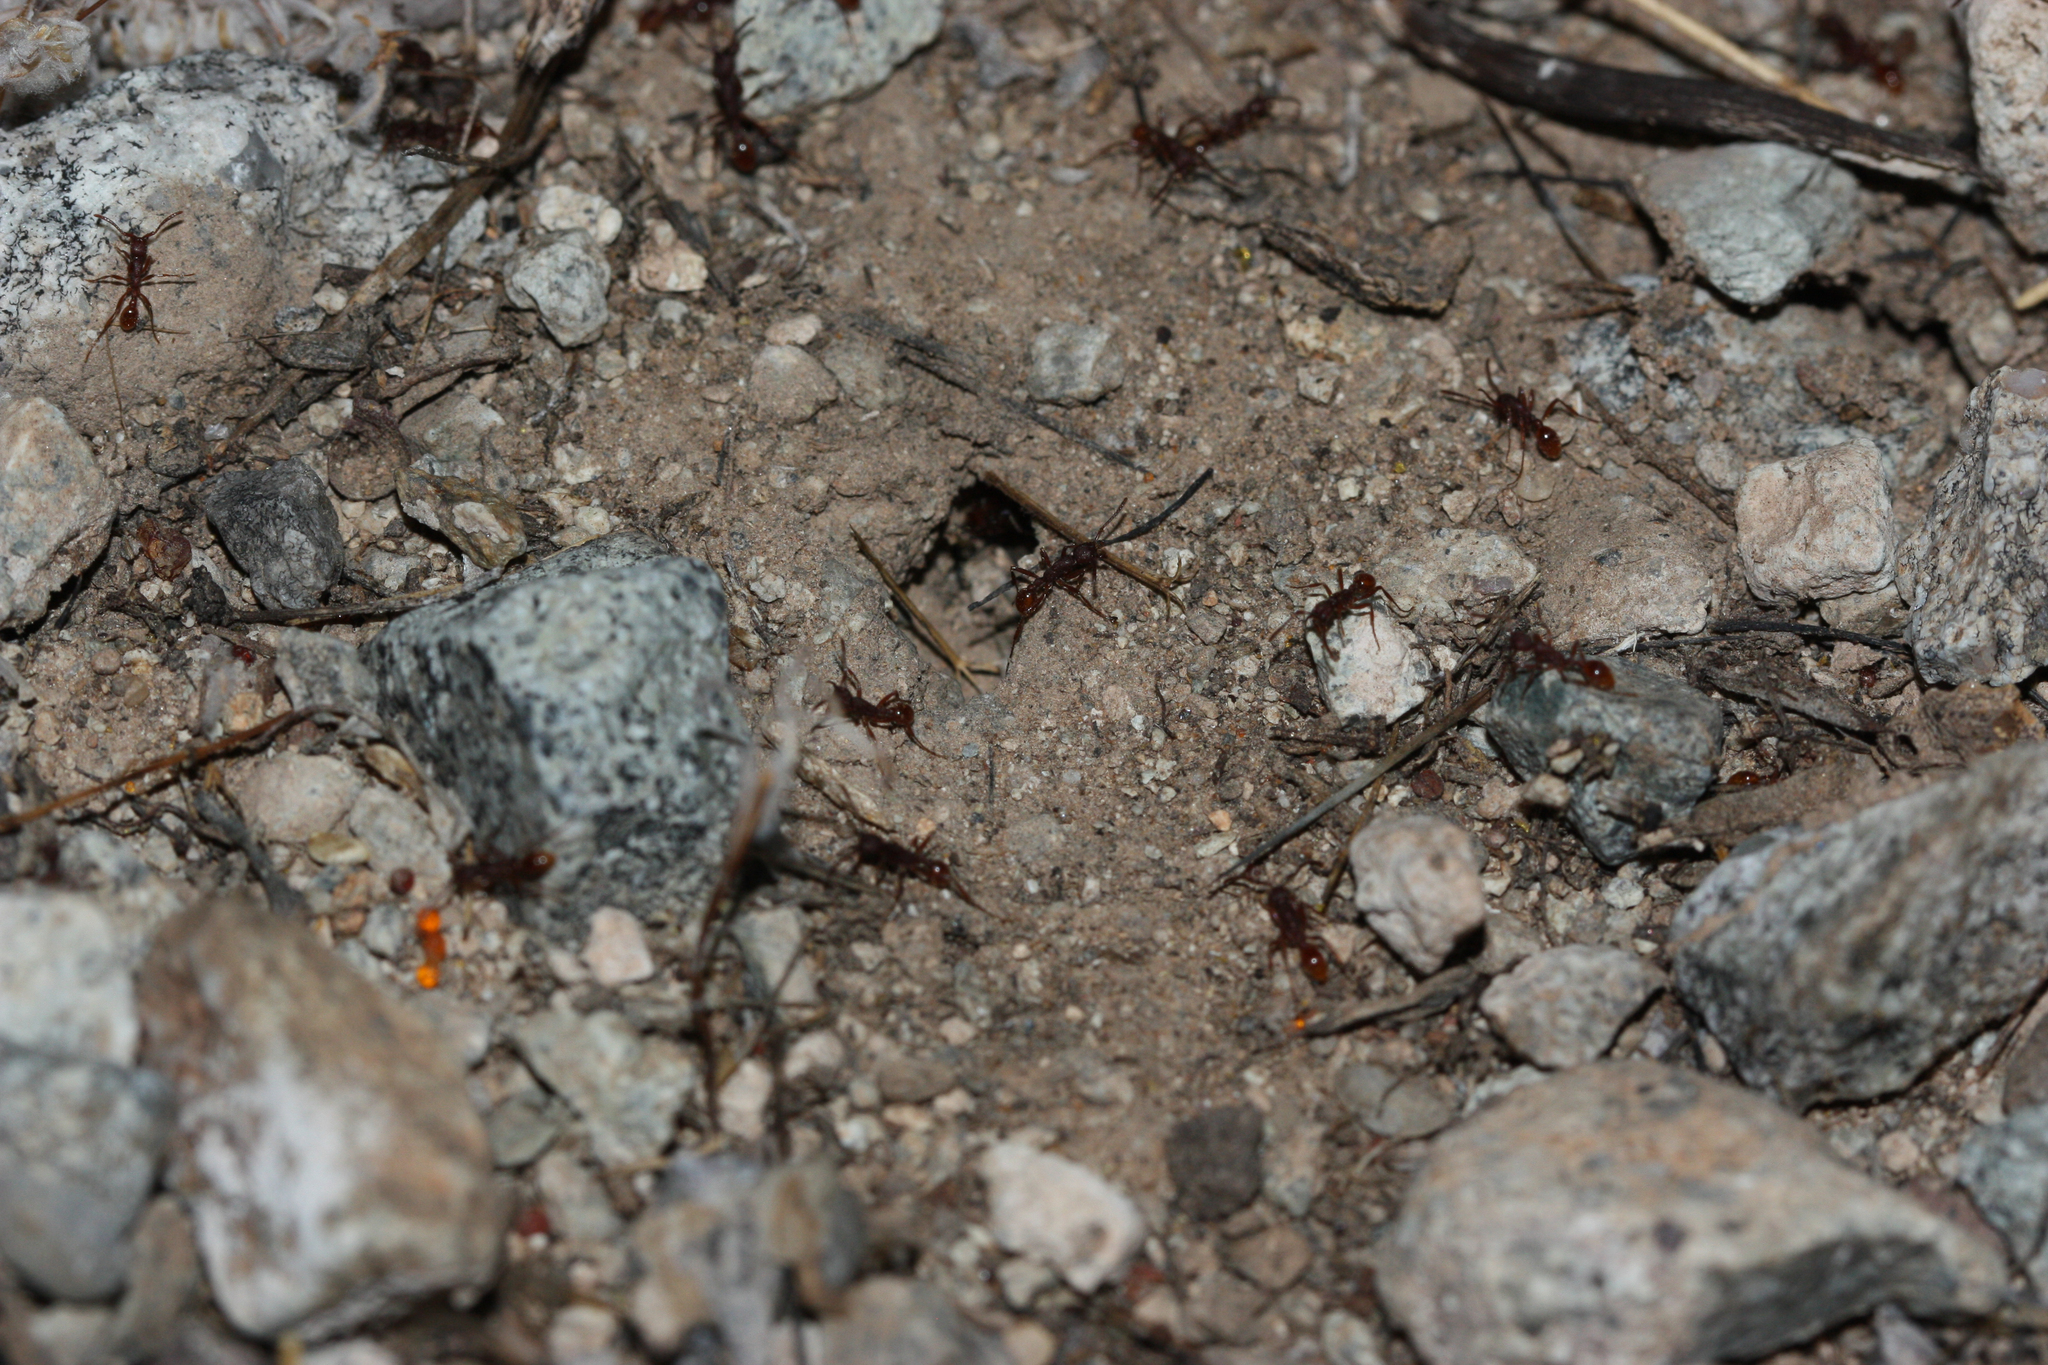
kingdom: Animalia
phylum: Arthropoda
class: Insecta
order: Hymenoptera
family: Formicidae
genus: Neivamyrmex
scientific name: Neivamyrmex nigrescens
